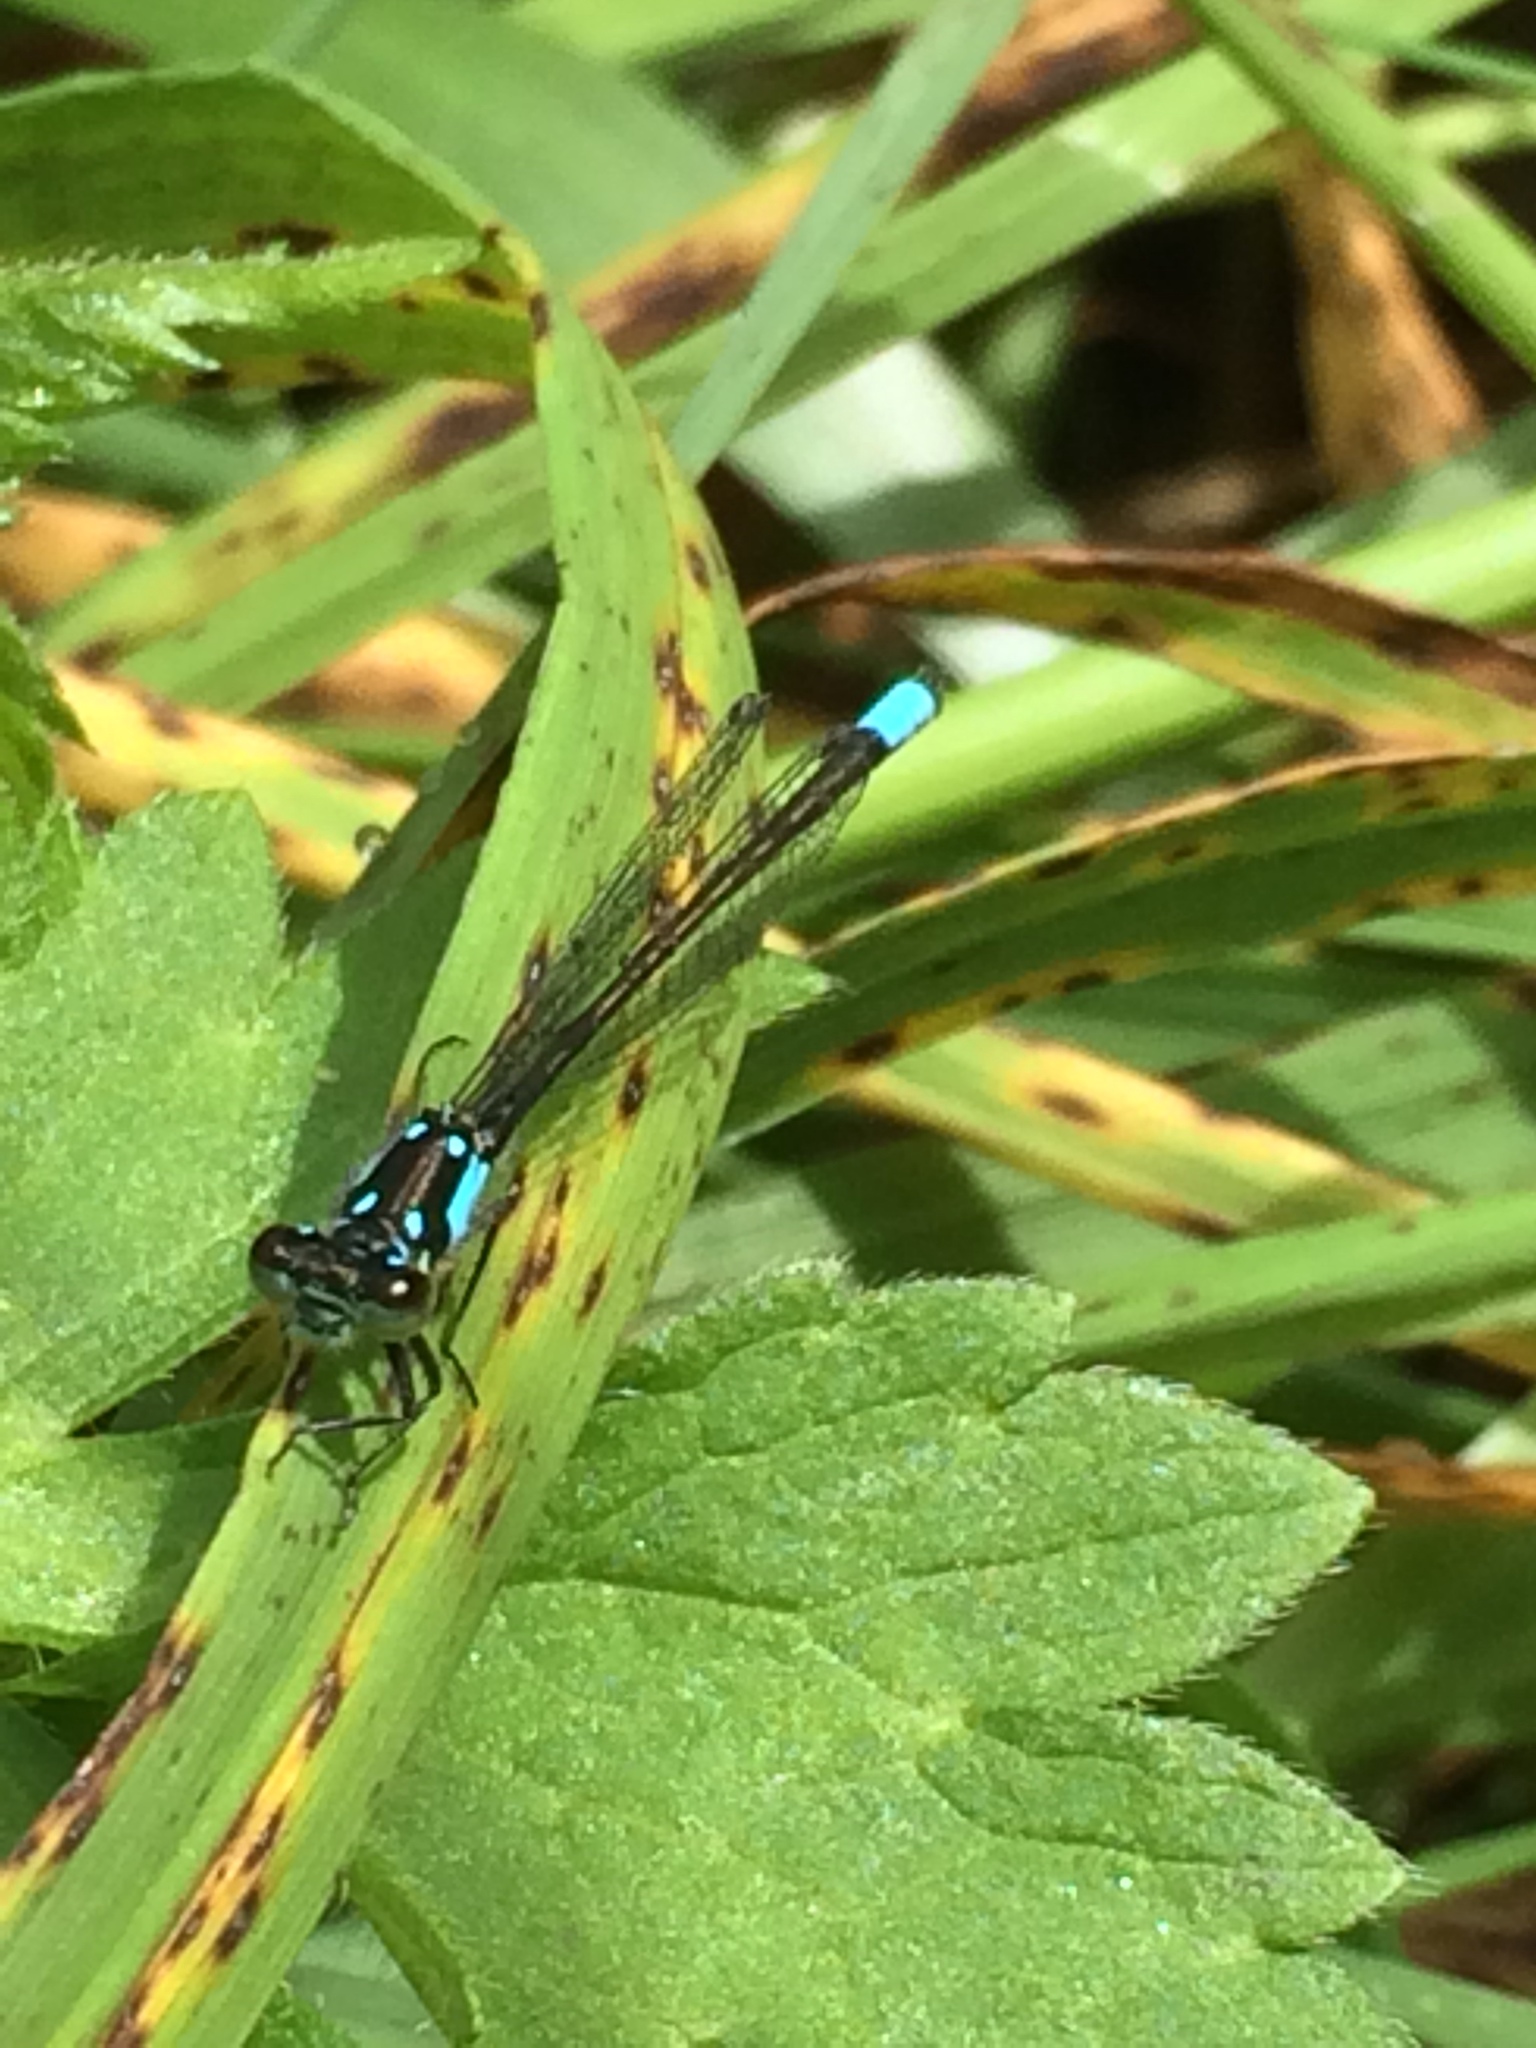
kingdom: Animalia
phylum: Arthropoda
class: Insecta
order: Odonata
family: Coenagrionidae
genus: Ischnura
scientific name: Ischnura cervula
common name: Pacific forktail
